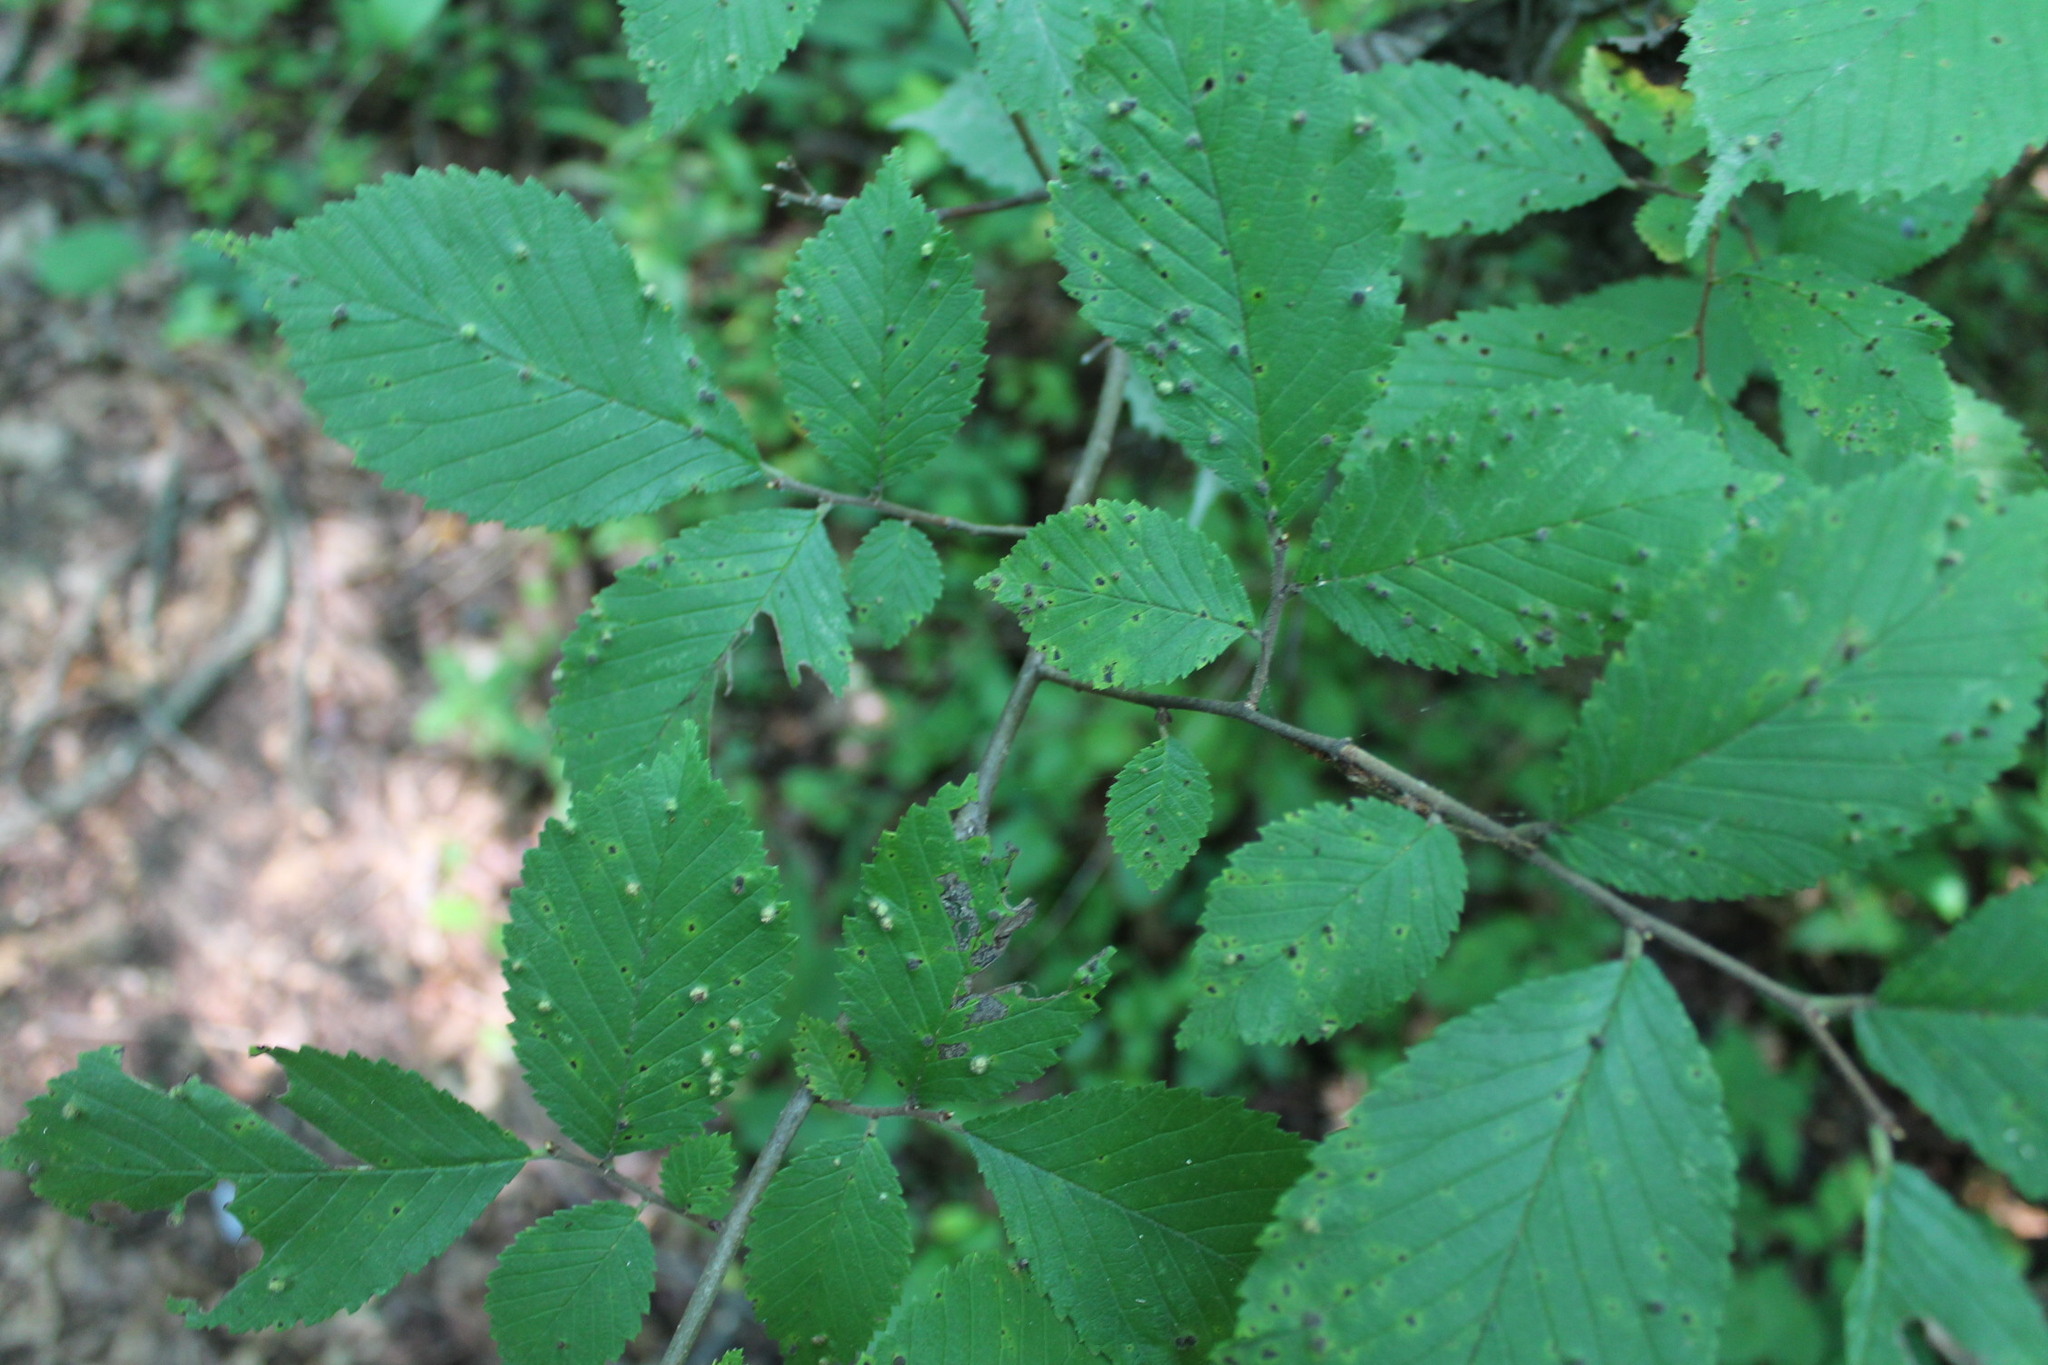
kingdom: Animalia
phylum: Arthropoda
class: Arachnida
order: Trombidiformes
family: Eriophyidae
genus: Aceria
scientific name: Aceria
